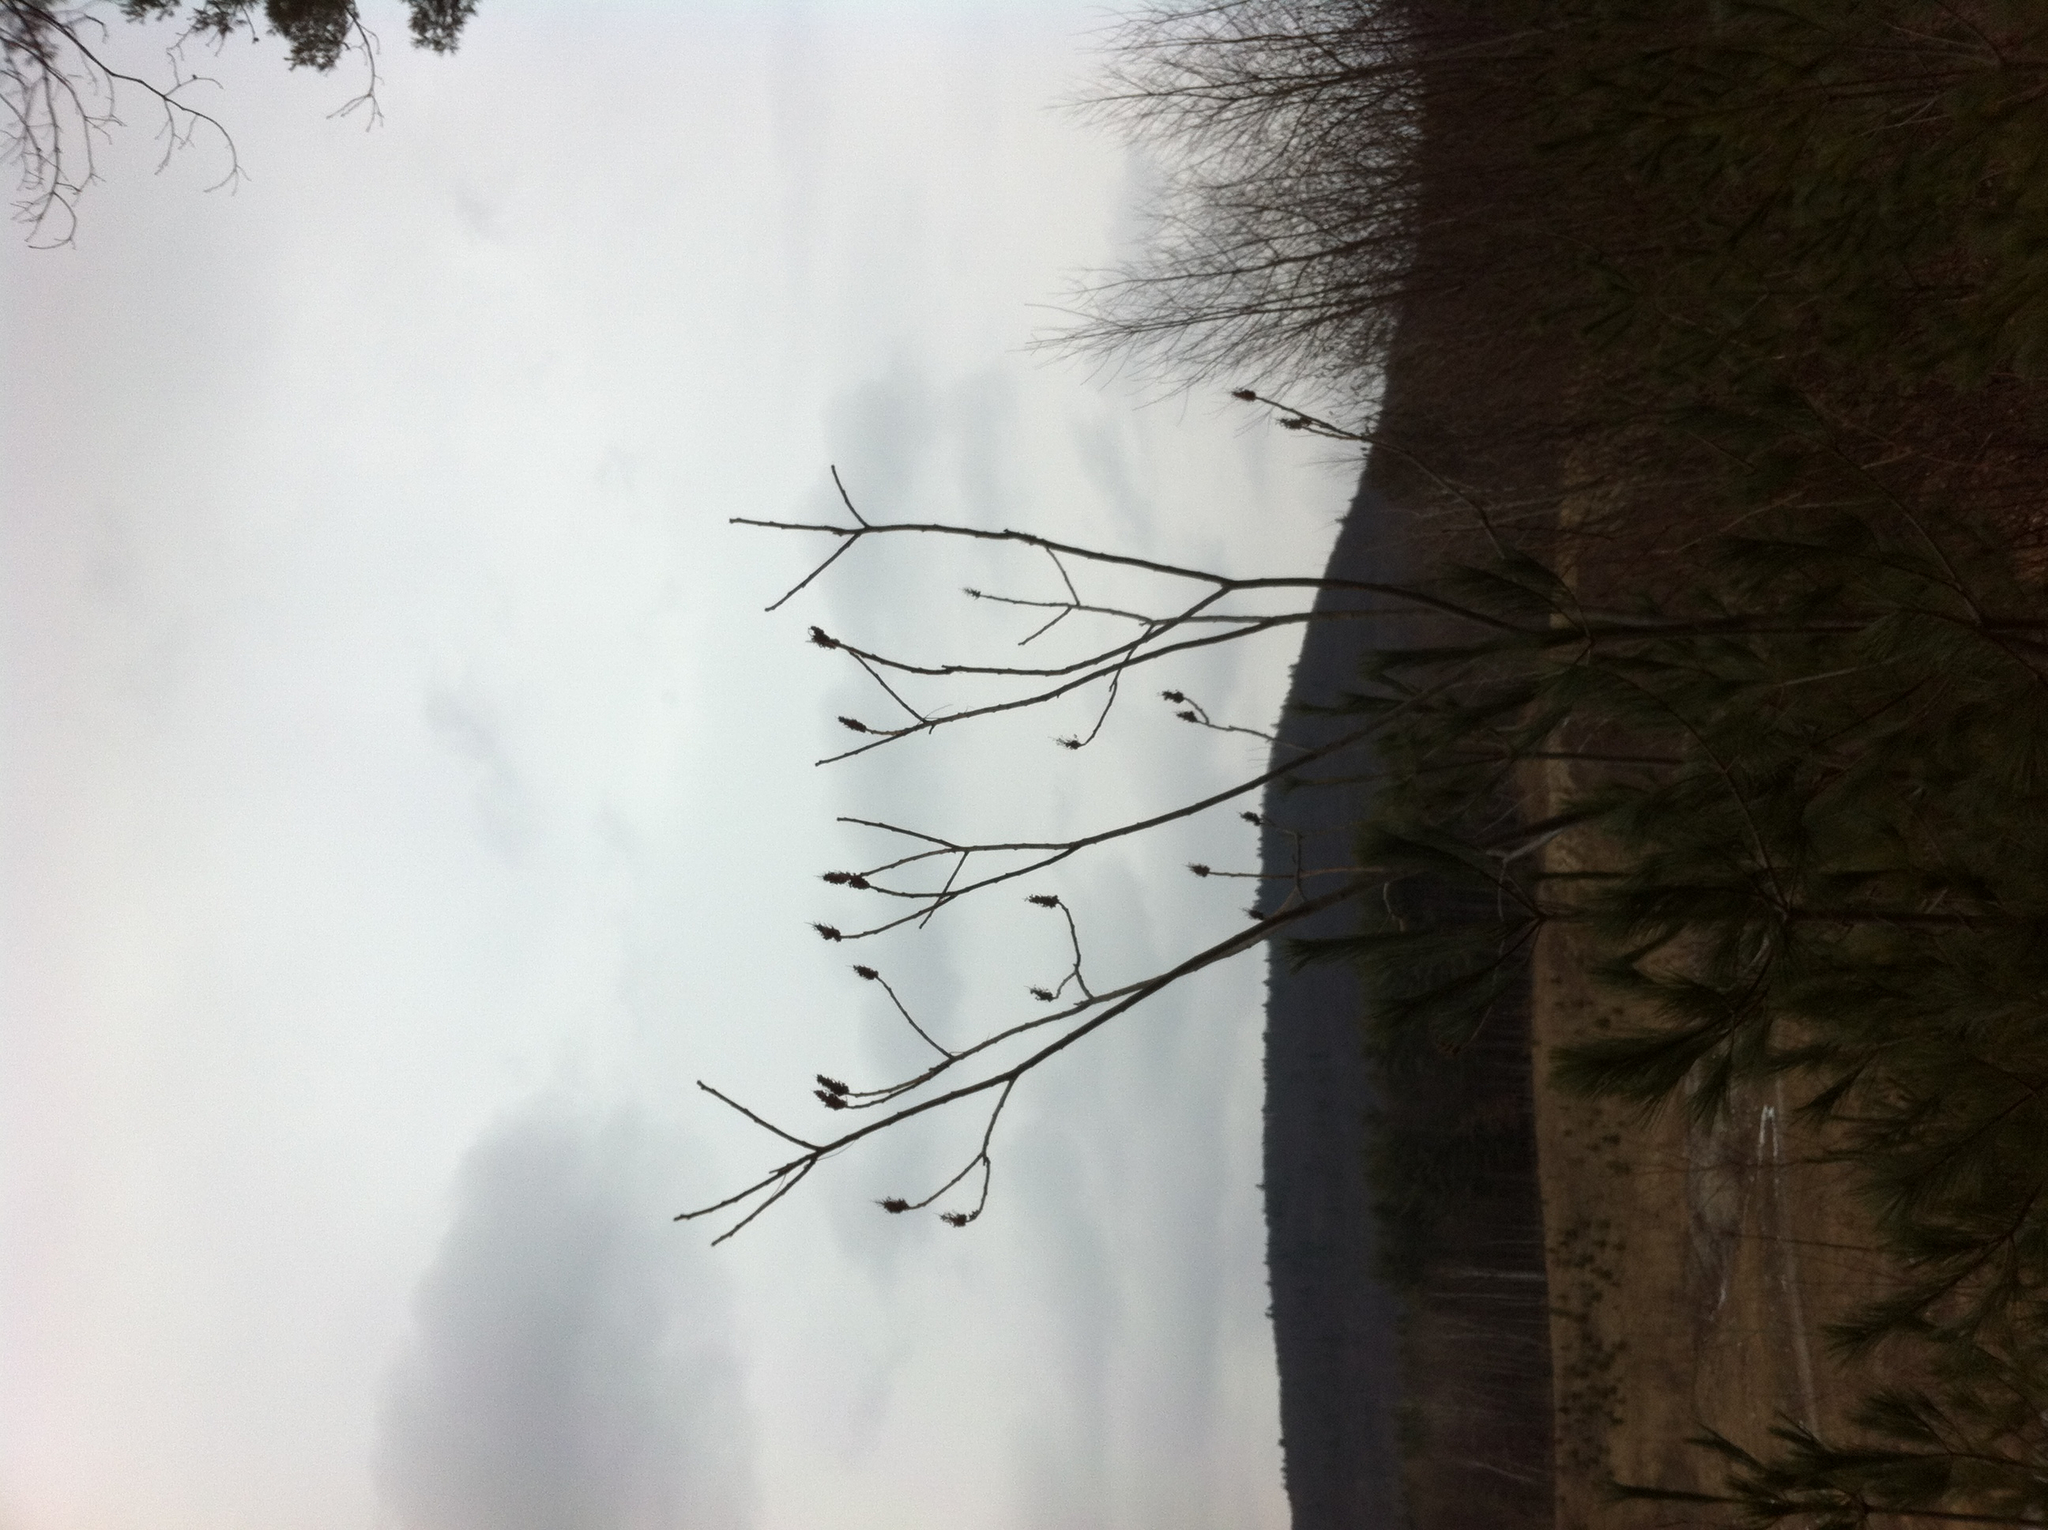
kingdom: Plantae
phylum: Tracheophyta
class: Magnoliopsida
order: Sapindales
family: Anacardiaceae
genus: Rhus
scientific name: Rhus typhina
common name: Staghorn sumac
